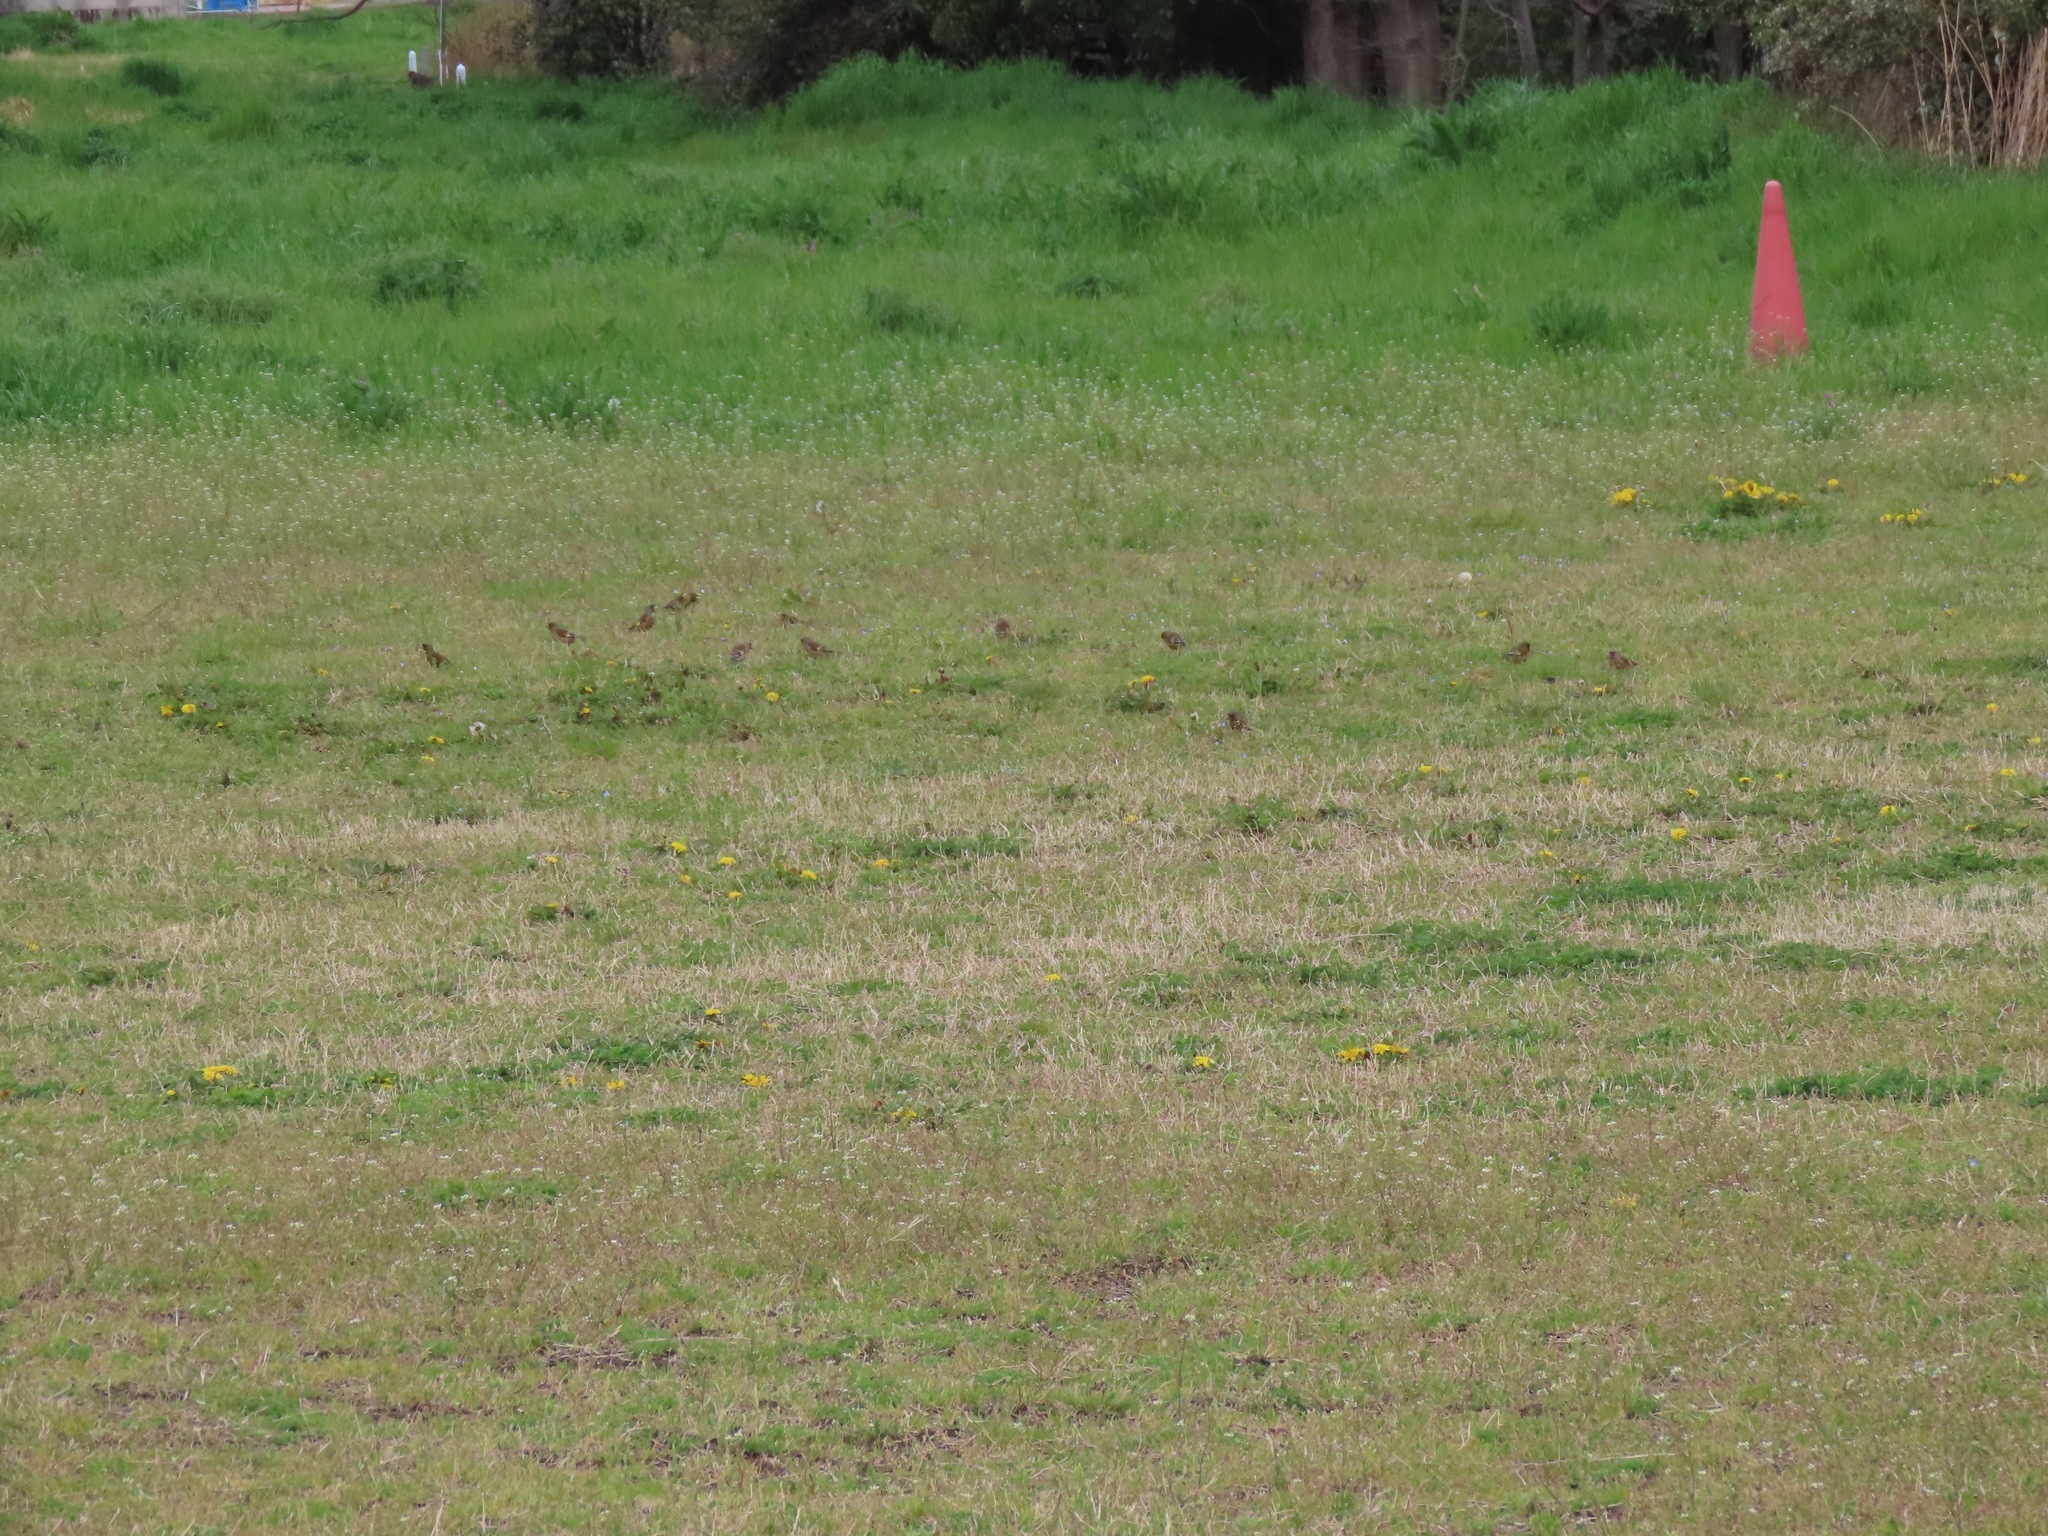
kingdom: Plantae
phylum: Tracheophyta
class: Liliopsida
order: Poales
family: Poaceae
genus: Chloris
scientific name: Chloris sinica
